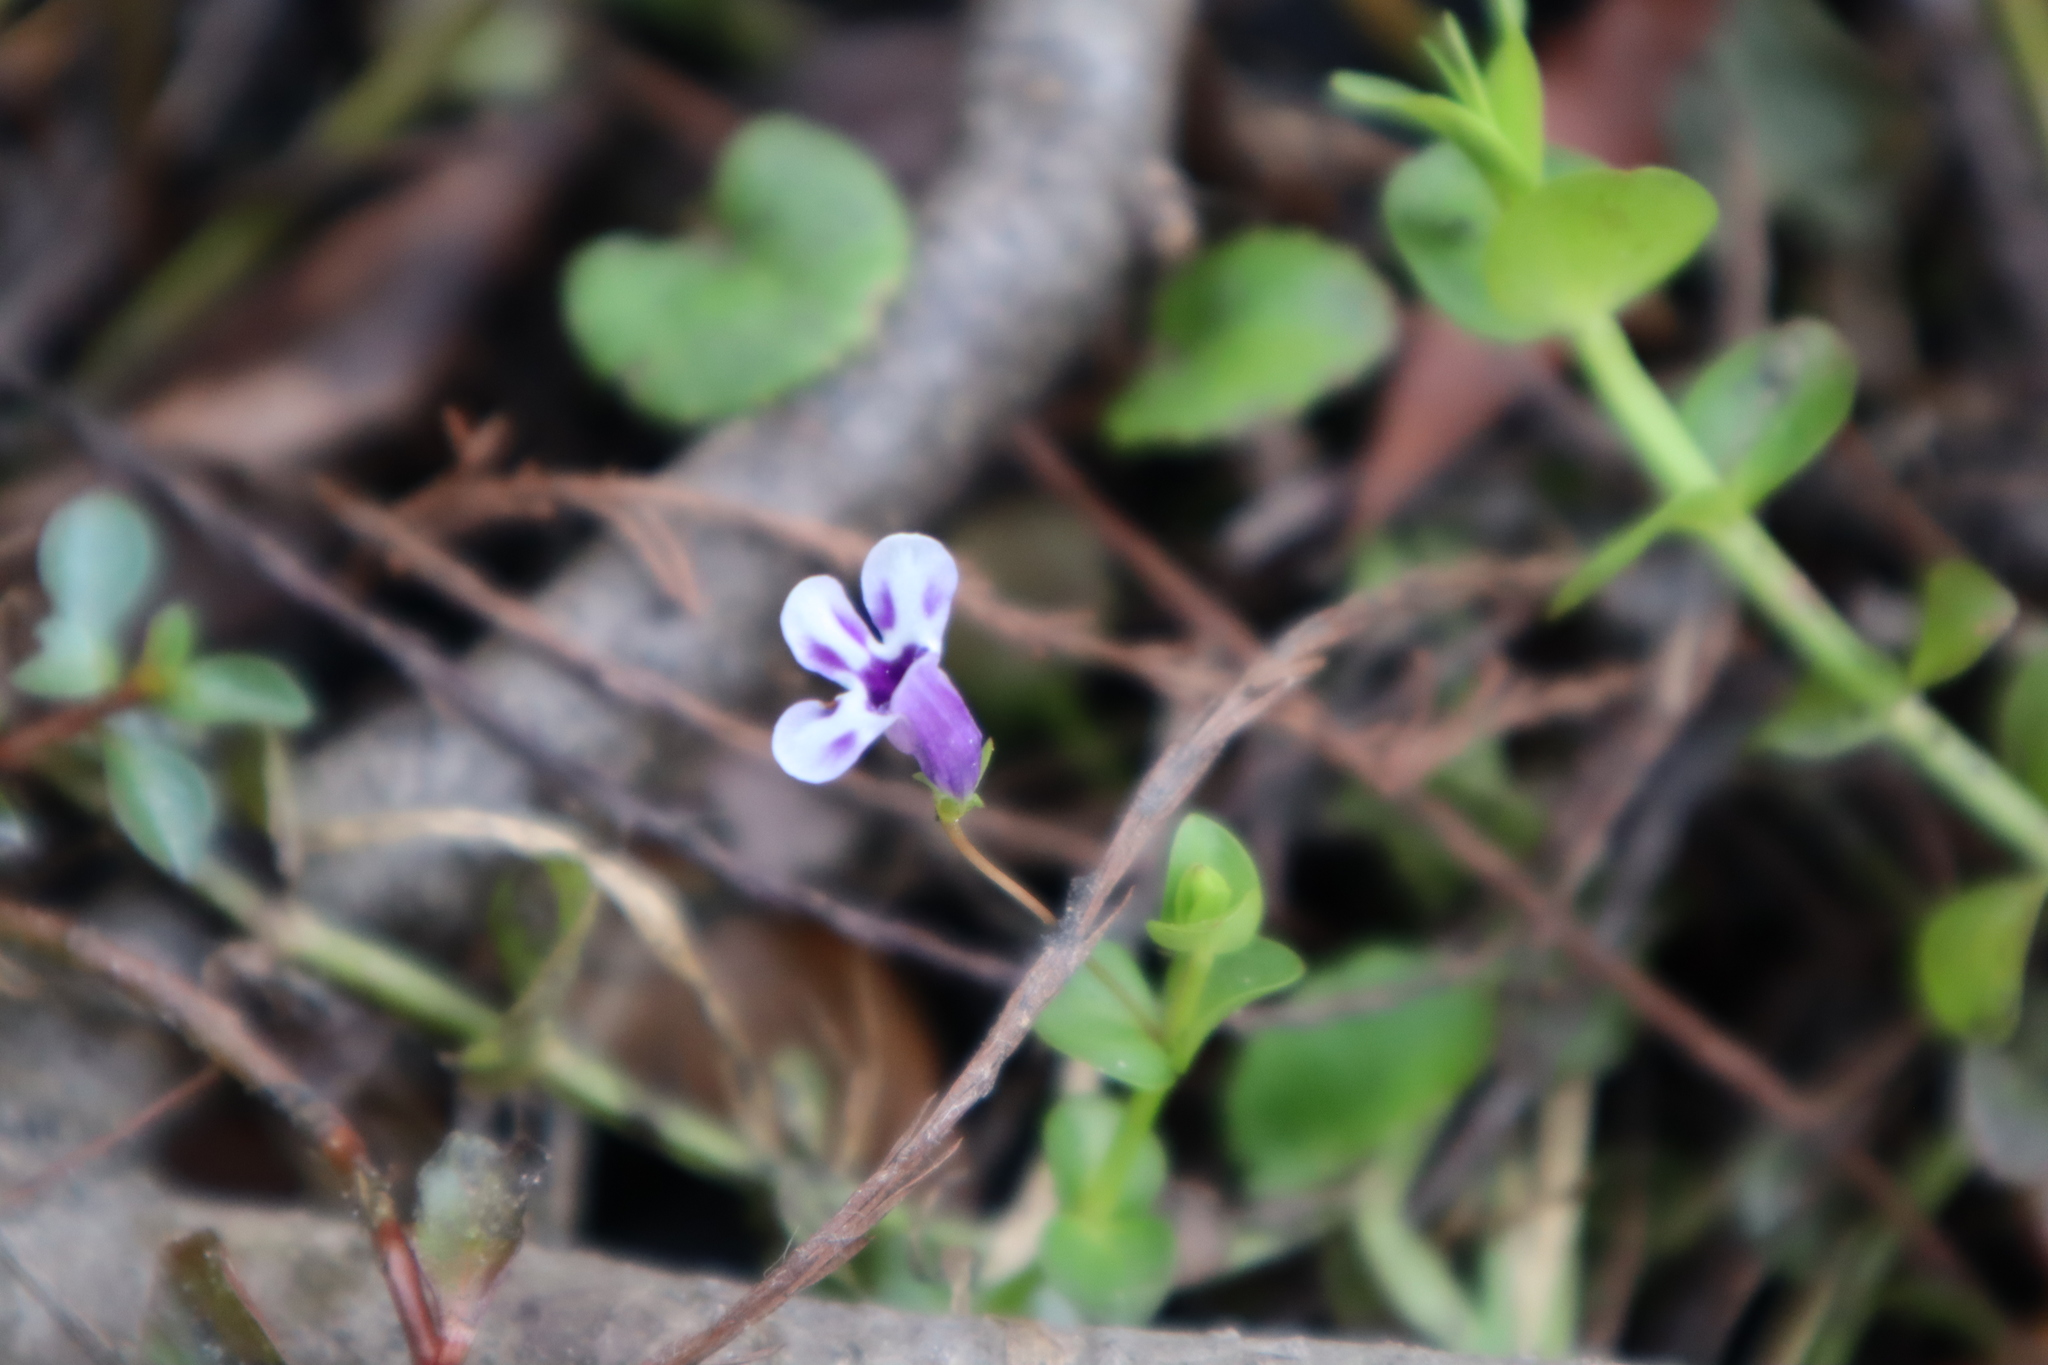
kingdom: Plantae
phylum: Tracheophyta
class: Magnoliopsida
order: Lamiales
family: Linderniaceae
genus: Lindernia
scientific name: Lindernia grandiflora
